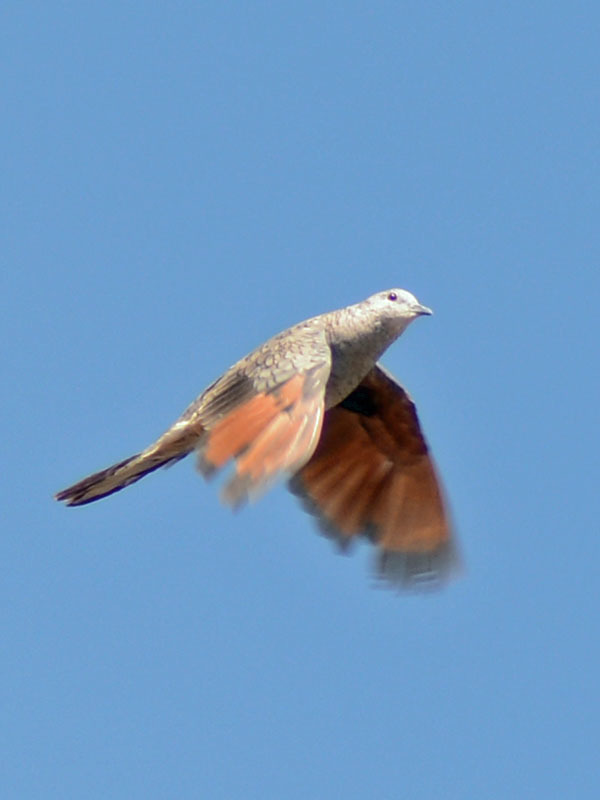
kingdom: Animalia
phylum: Chordata
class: Aves
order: Columbiformes
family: Columbidae
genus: Columbina
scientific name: Columbina inca
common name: Inca dove
